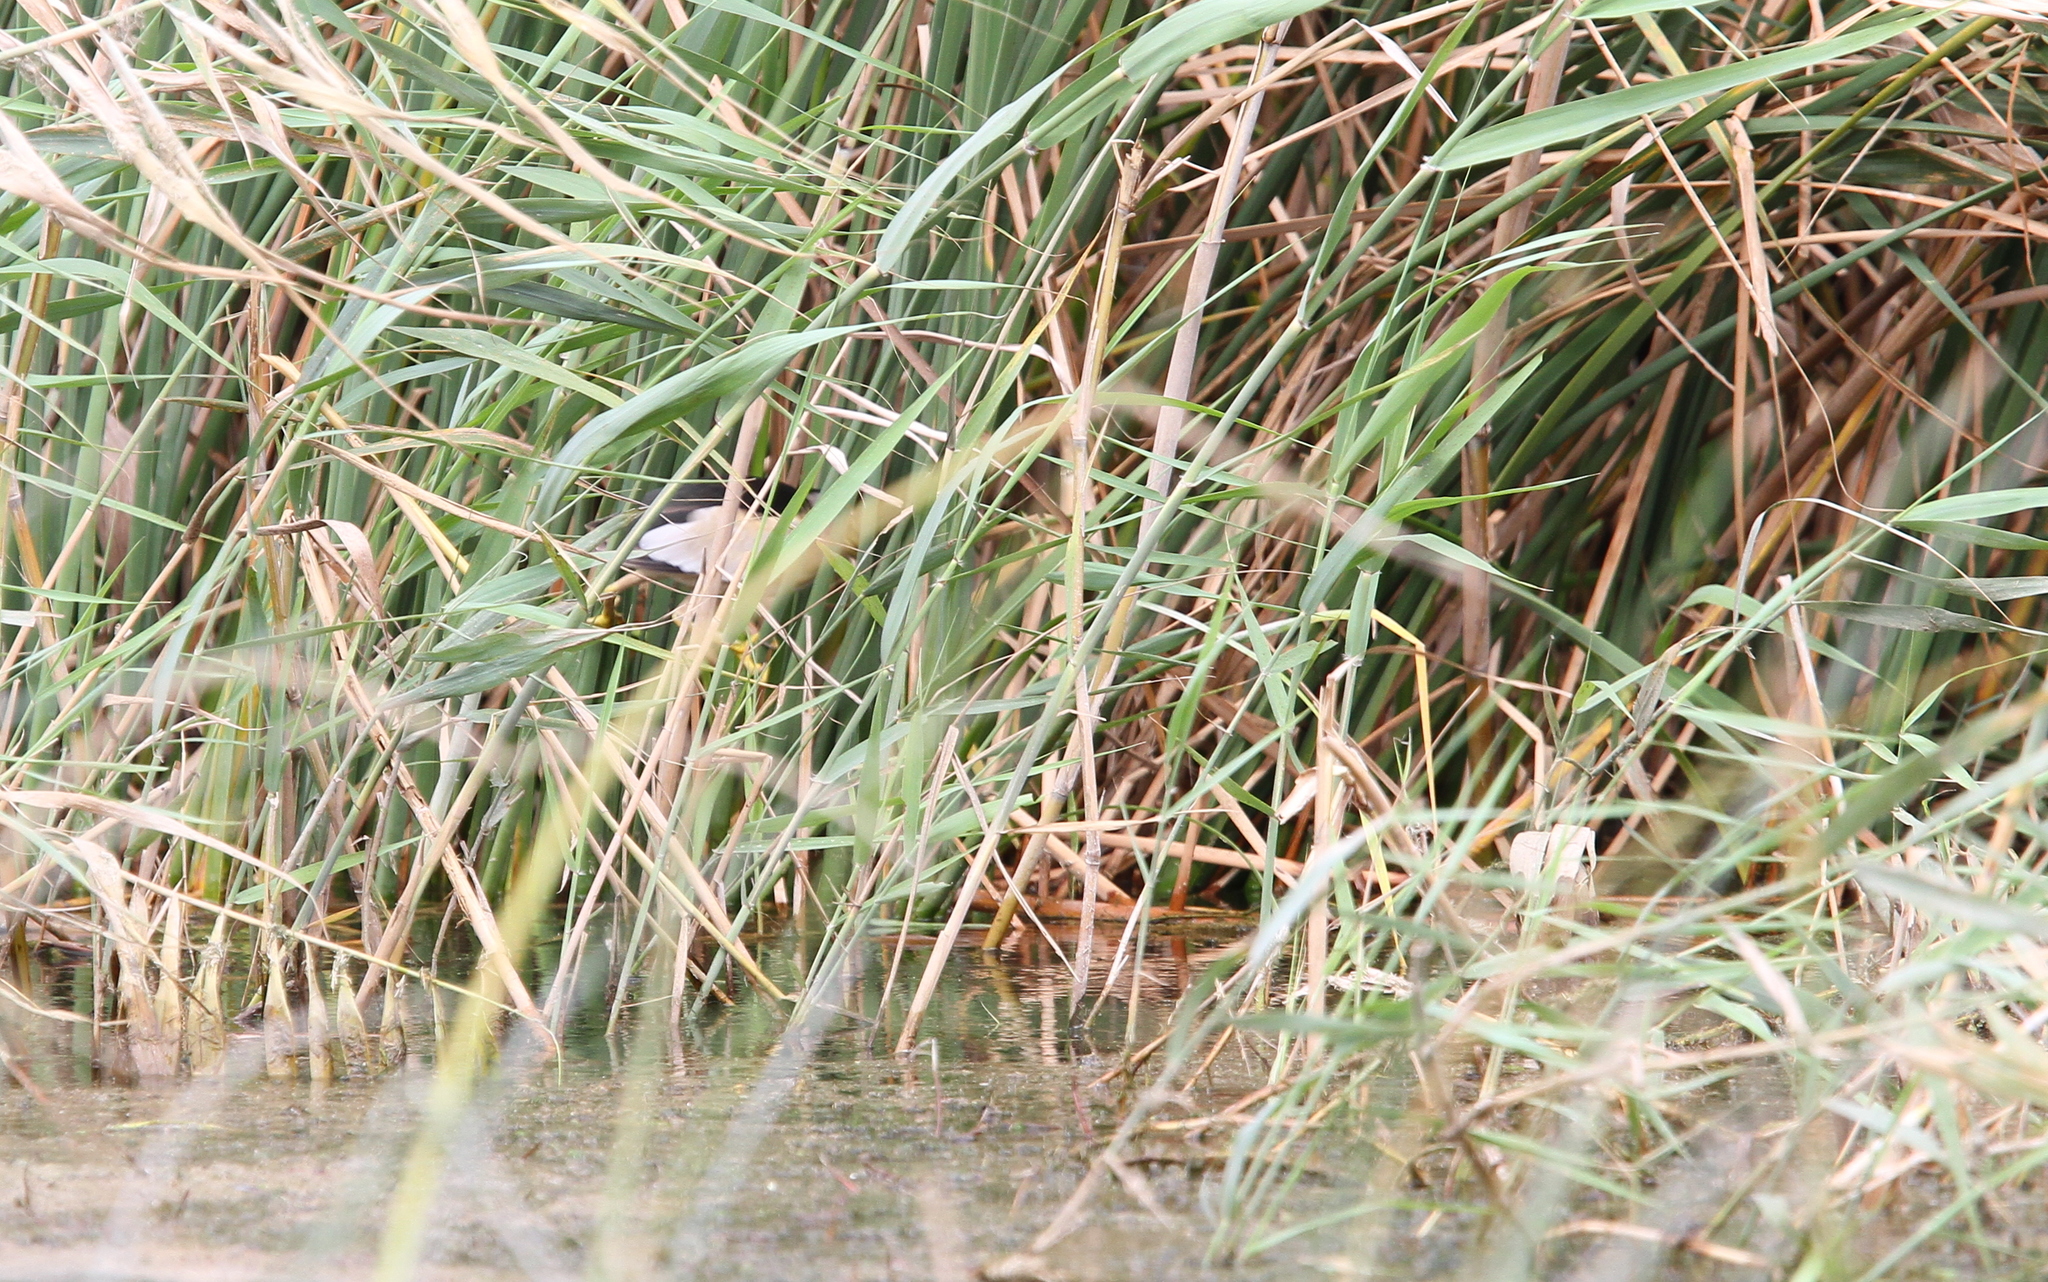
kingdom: Animalia
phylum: Chordata
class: Aves
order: Pelecaniformes
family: Ardeidae
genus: Ixobrychus
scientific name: Ixobrychus minutus
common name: Little bittern
